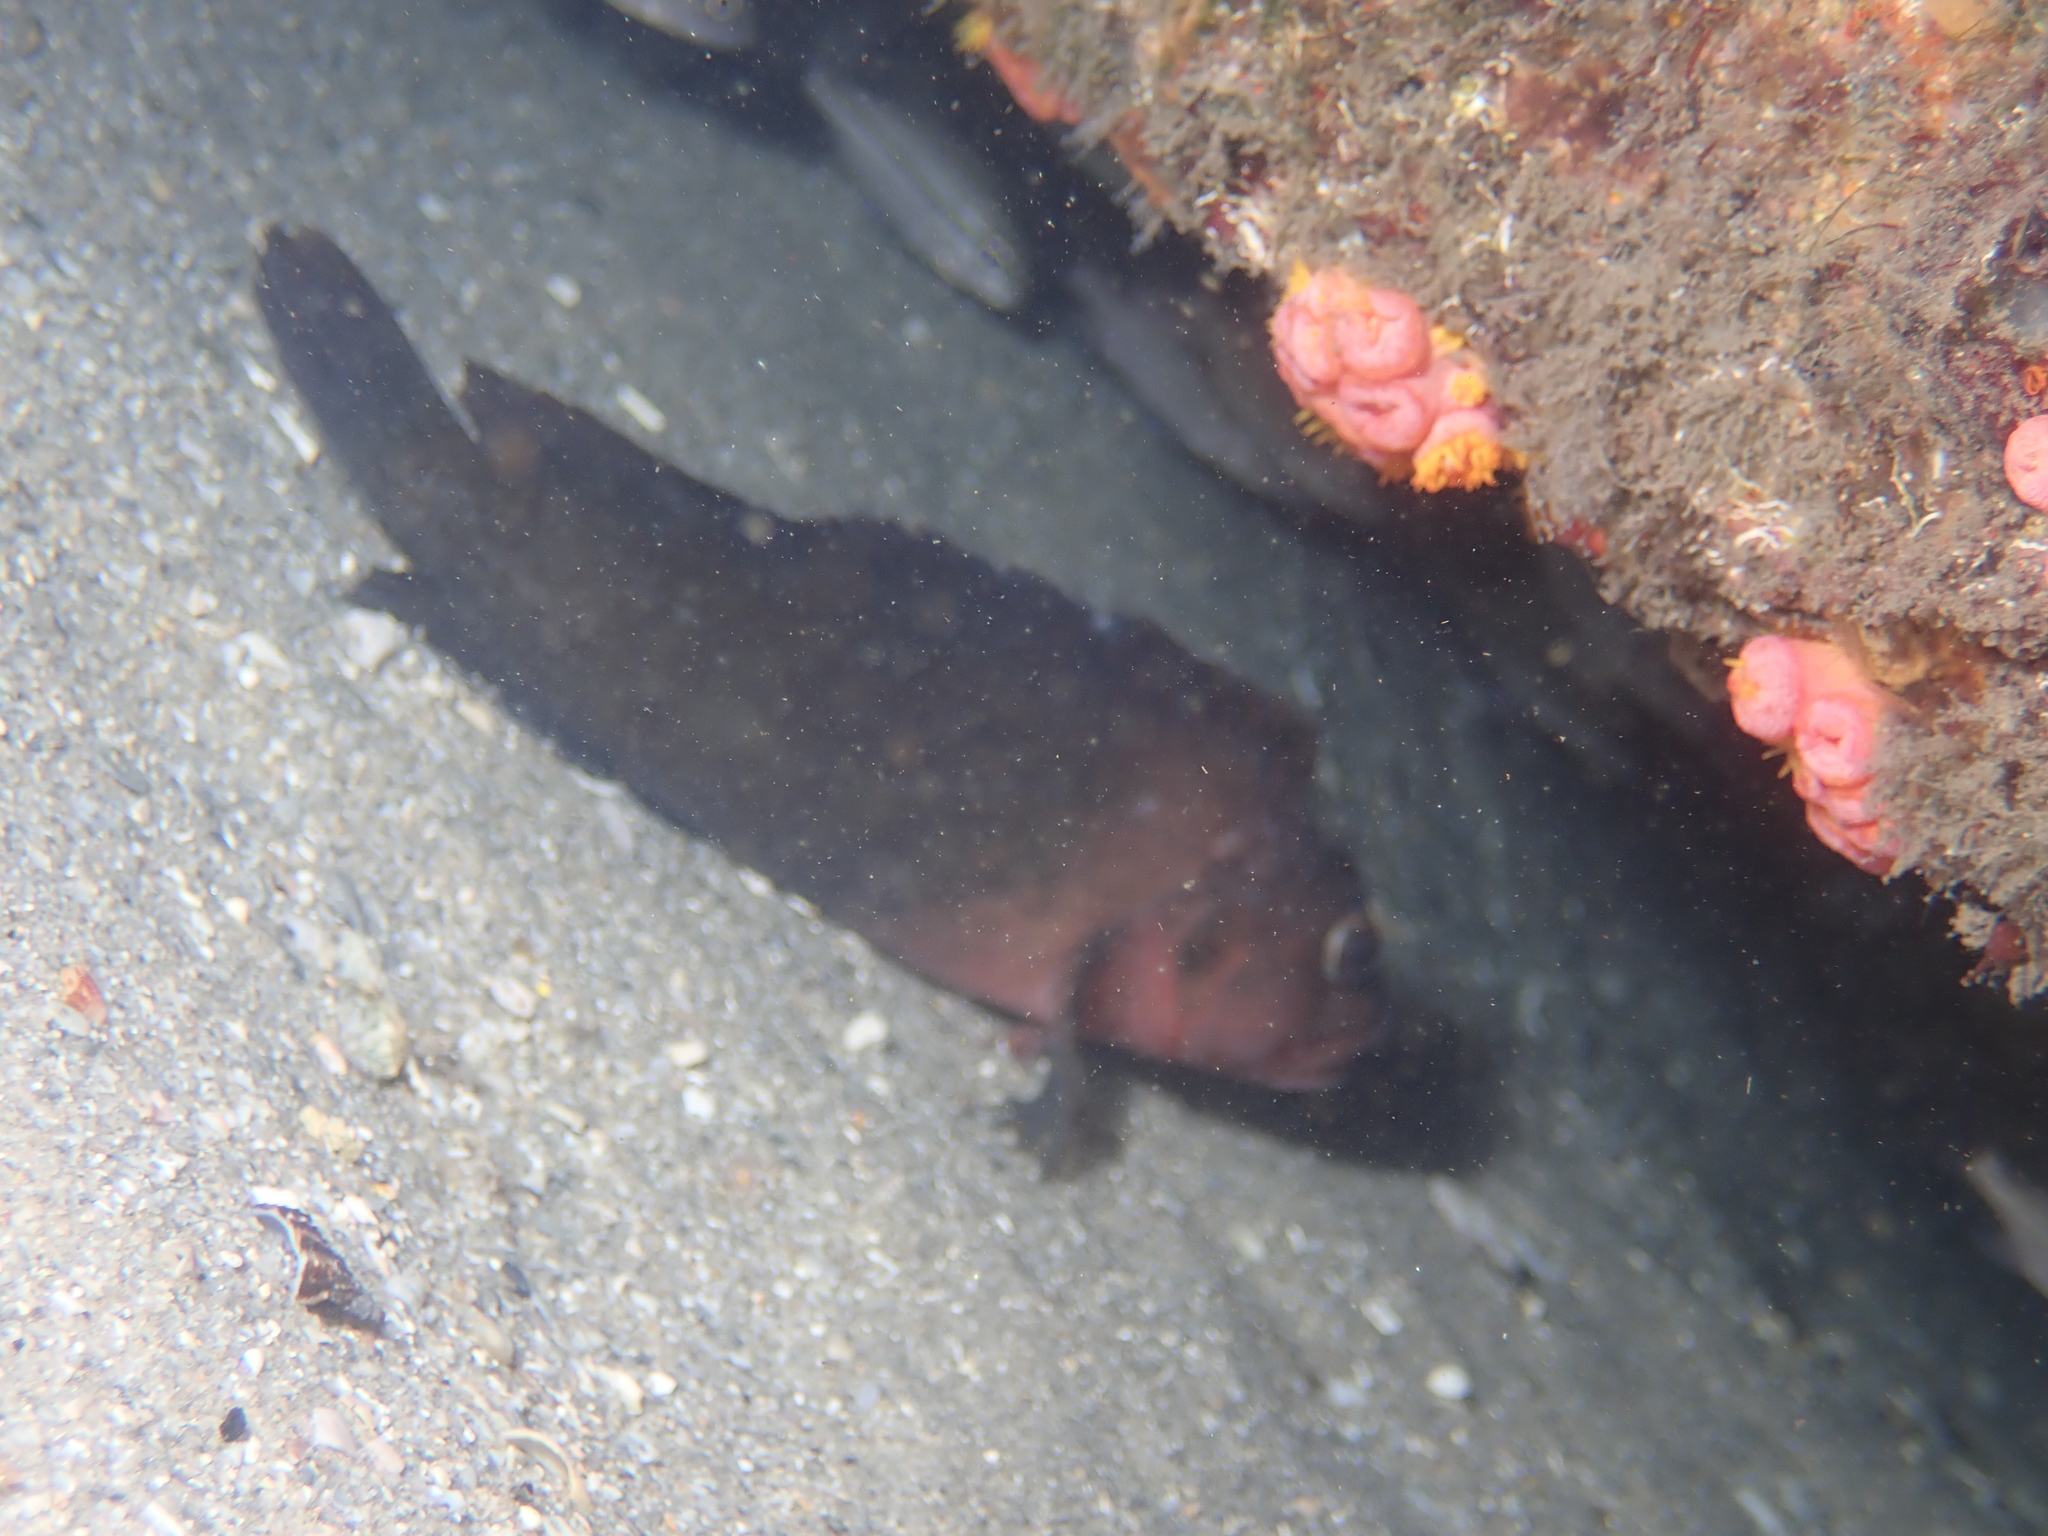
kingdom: Animalia
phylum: Chordata
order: Perciformes
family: Labrisomidae
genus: Labrisomus
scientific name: Labrisomus conditus
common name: Masquerader hairy blenny
